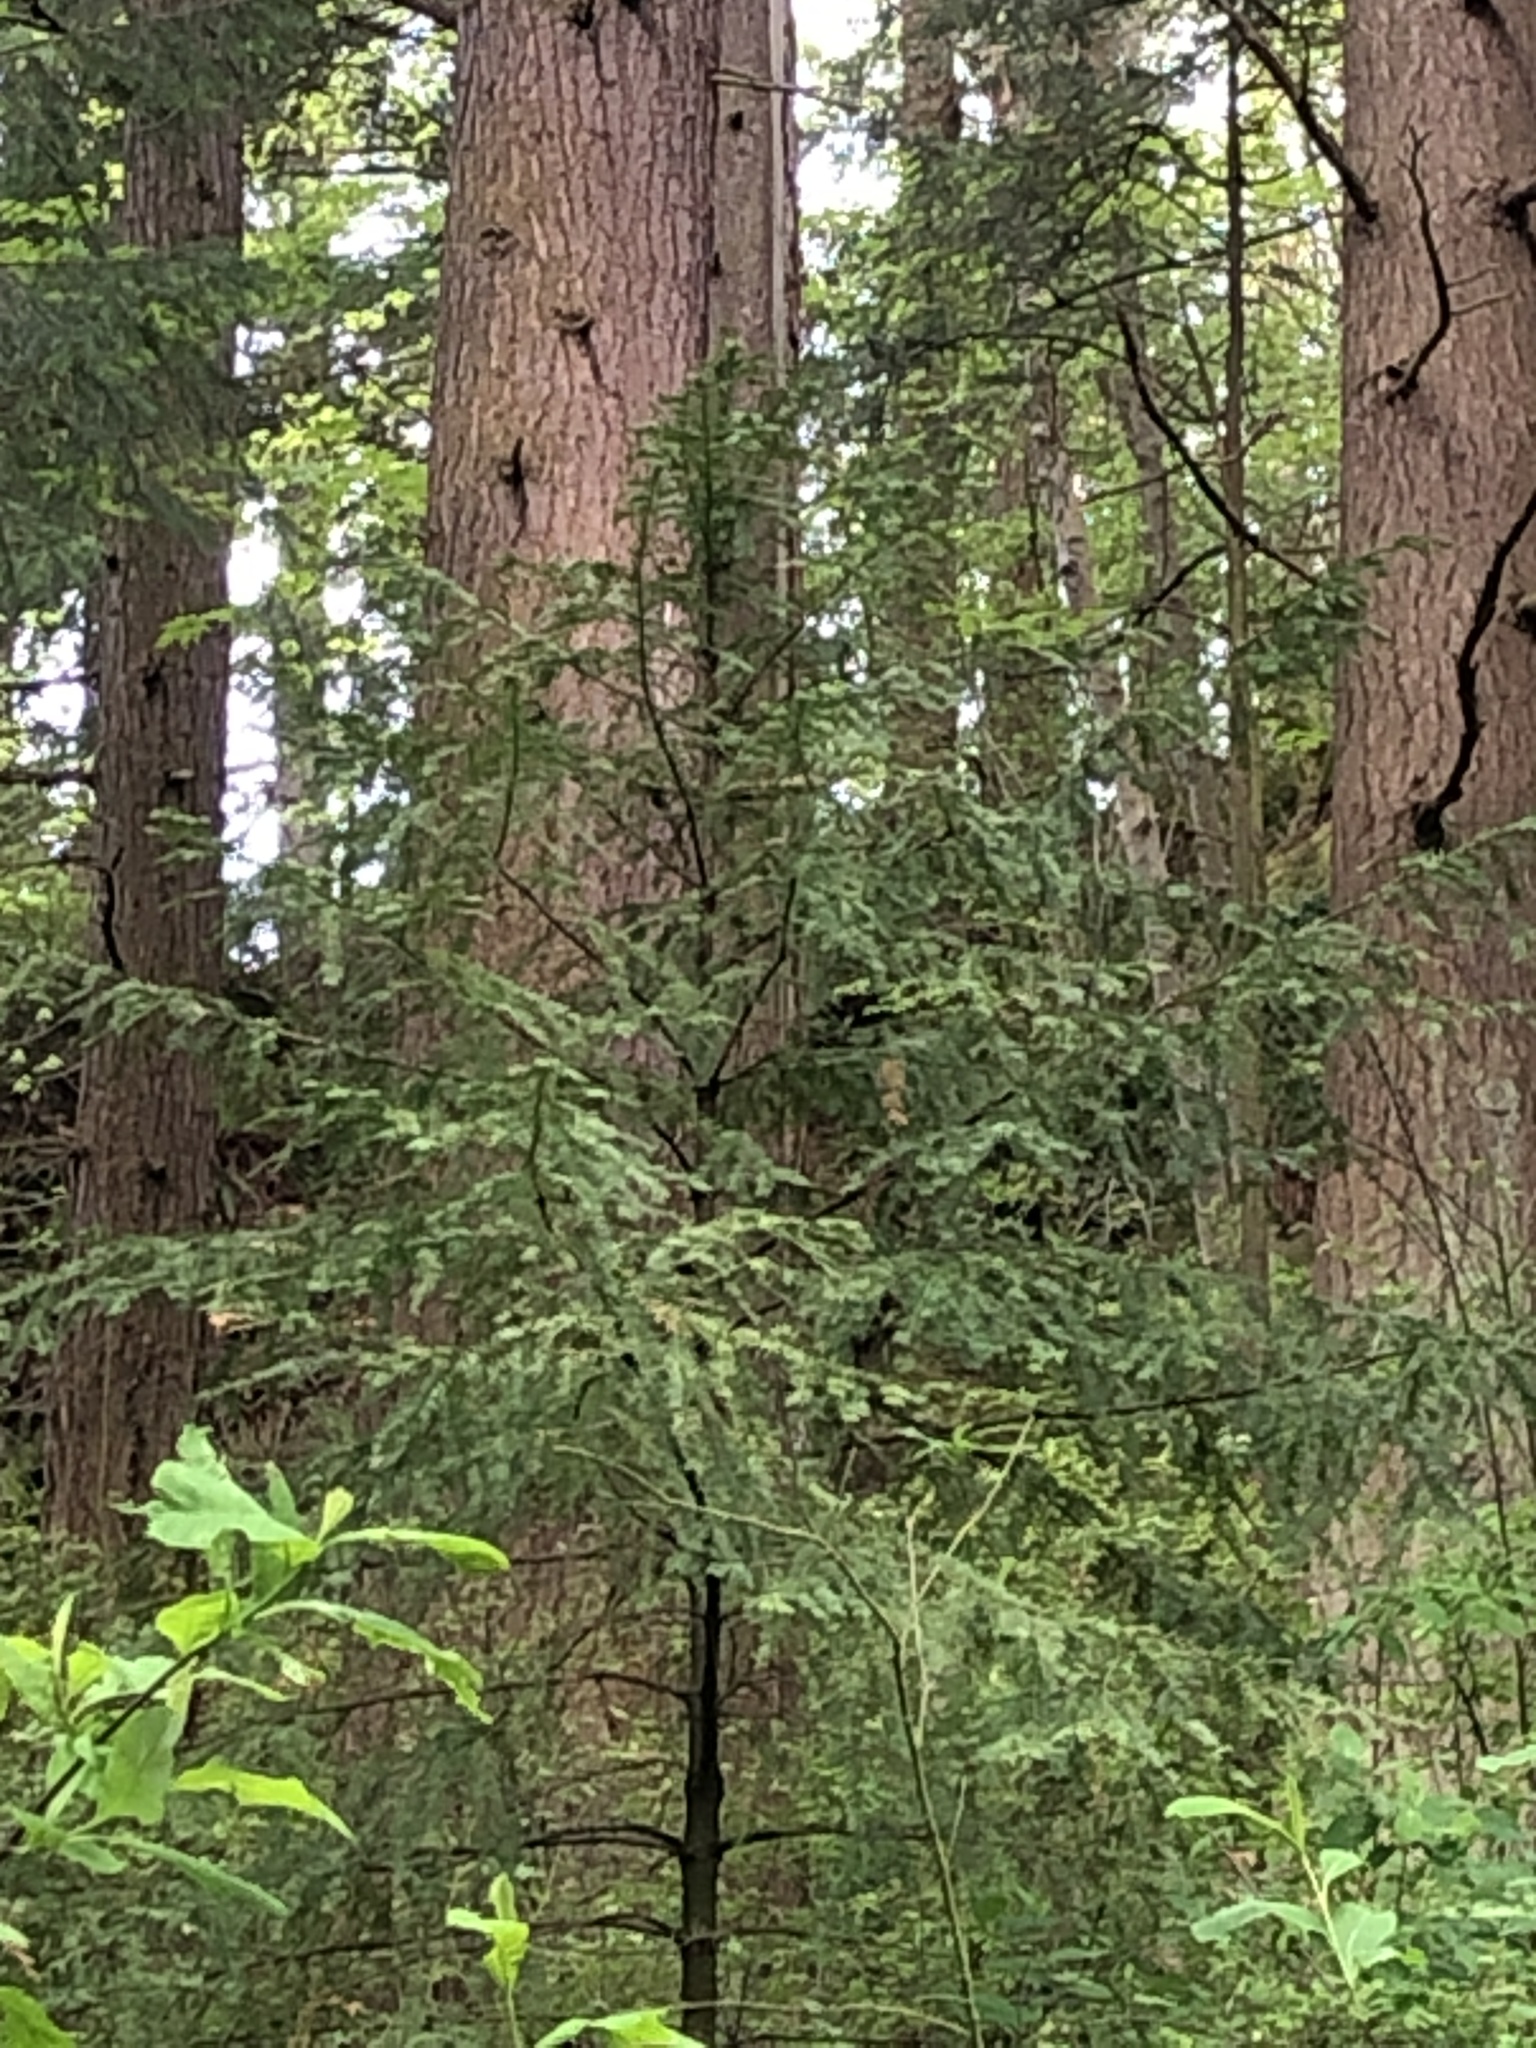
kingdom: Plantae
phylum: Tracheophyta
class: Pinopsida
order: Pinales
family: Taxaceae
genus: Taxus
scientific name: Taxus brevifolia
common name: Pacific yew
